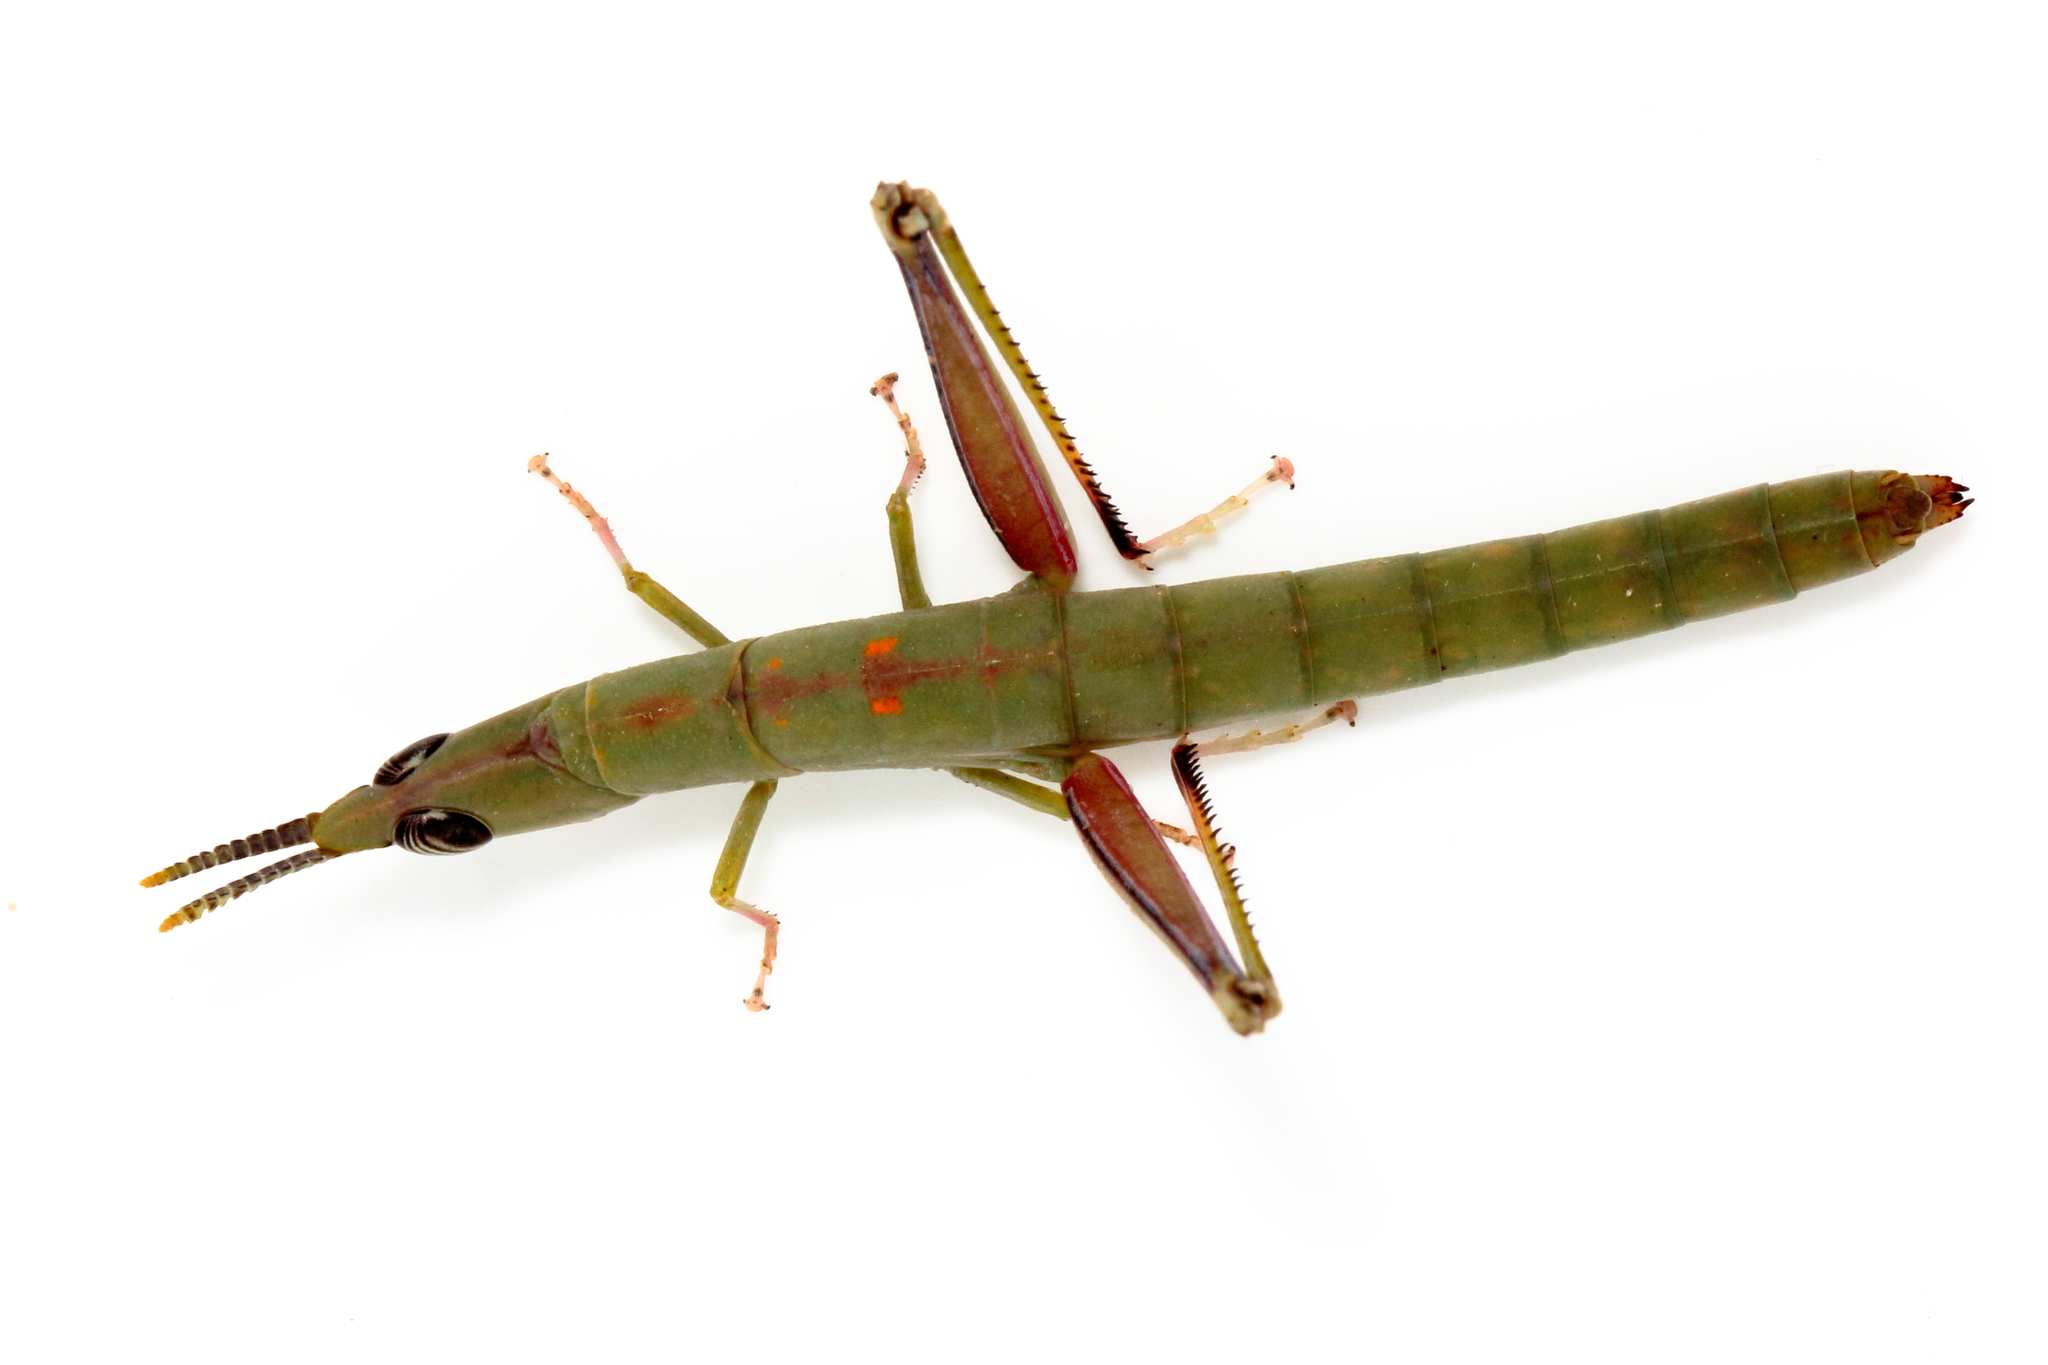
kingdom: Animalia
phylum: Arthropoda
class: Insecta
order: Orthoptera
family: Morabidae
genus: Warramaba
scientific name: Warramaba flavolineata
